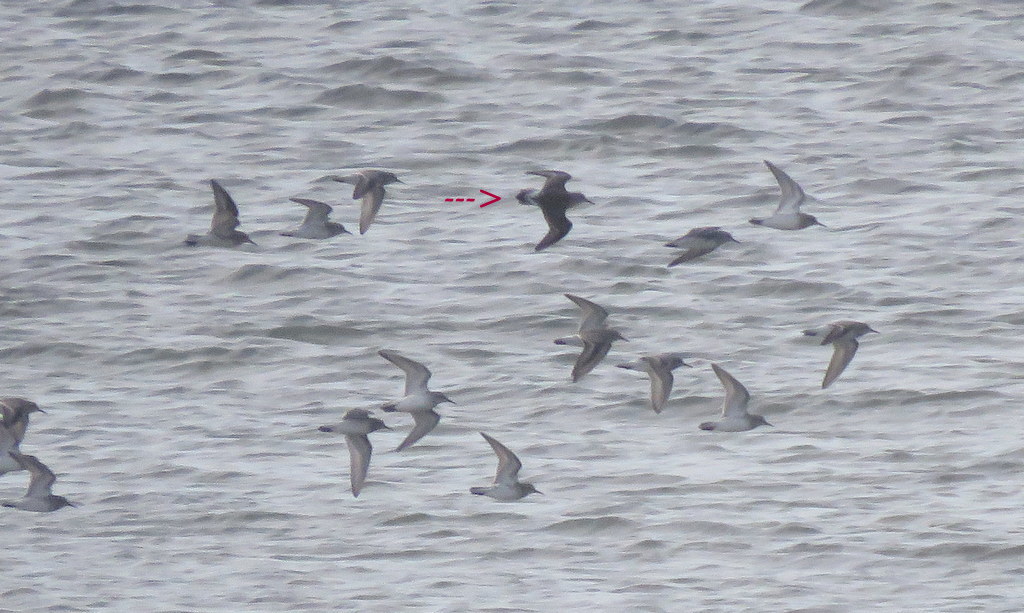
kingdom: Animalia
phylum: Chordata
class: Aves
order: Charadriiformes
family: Scolopacidae
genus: Calidris
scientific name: Calidris fuscicollis
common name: White-rumped sandpiper
